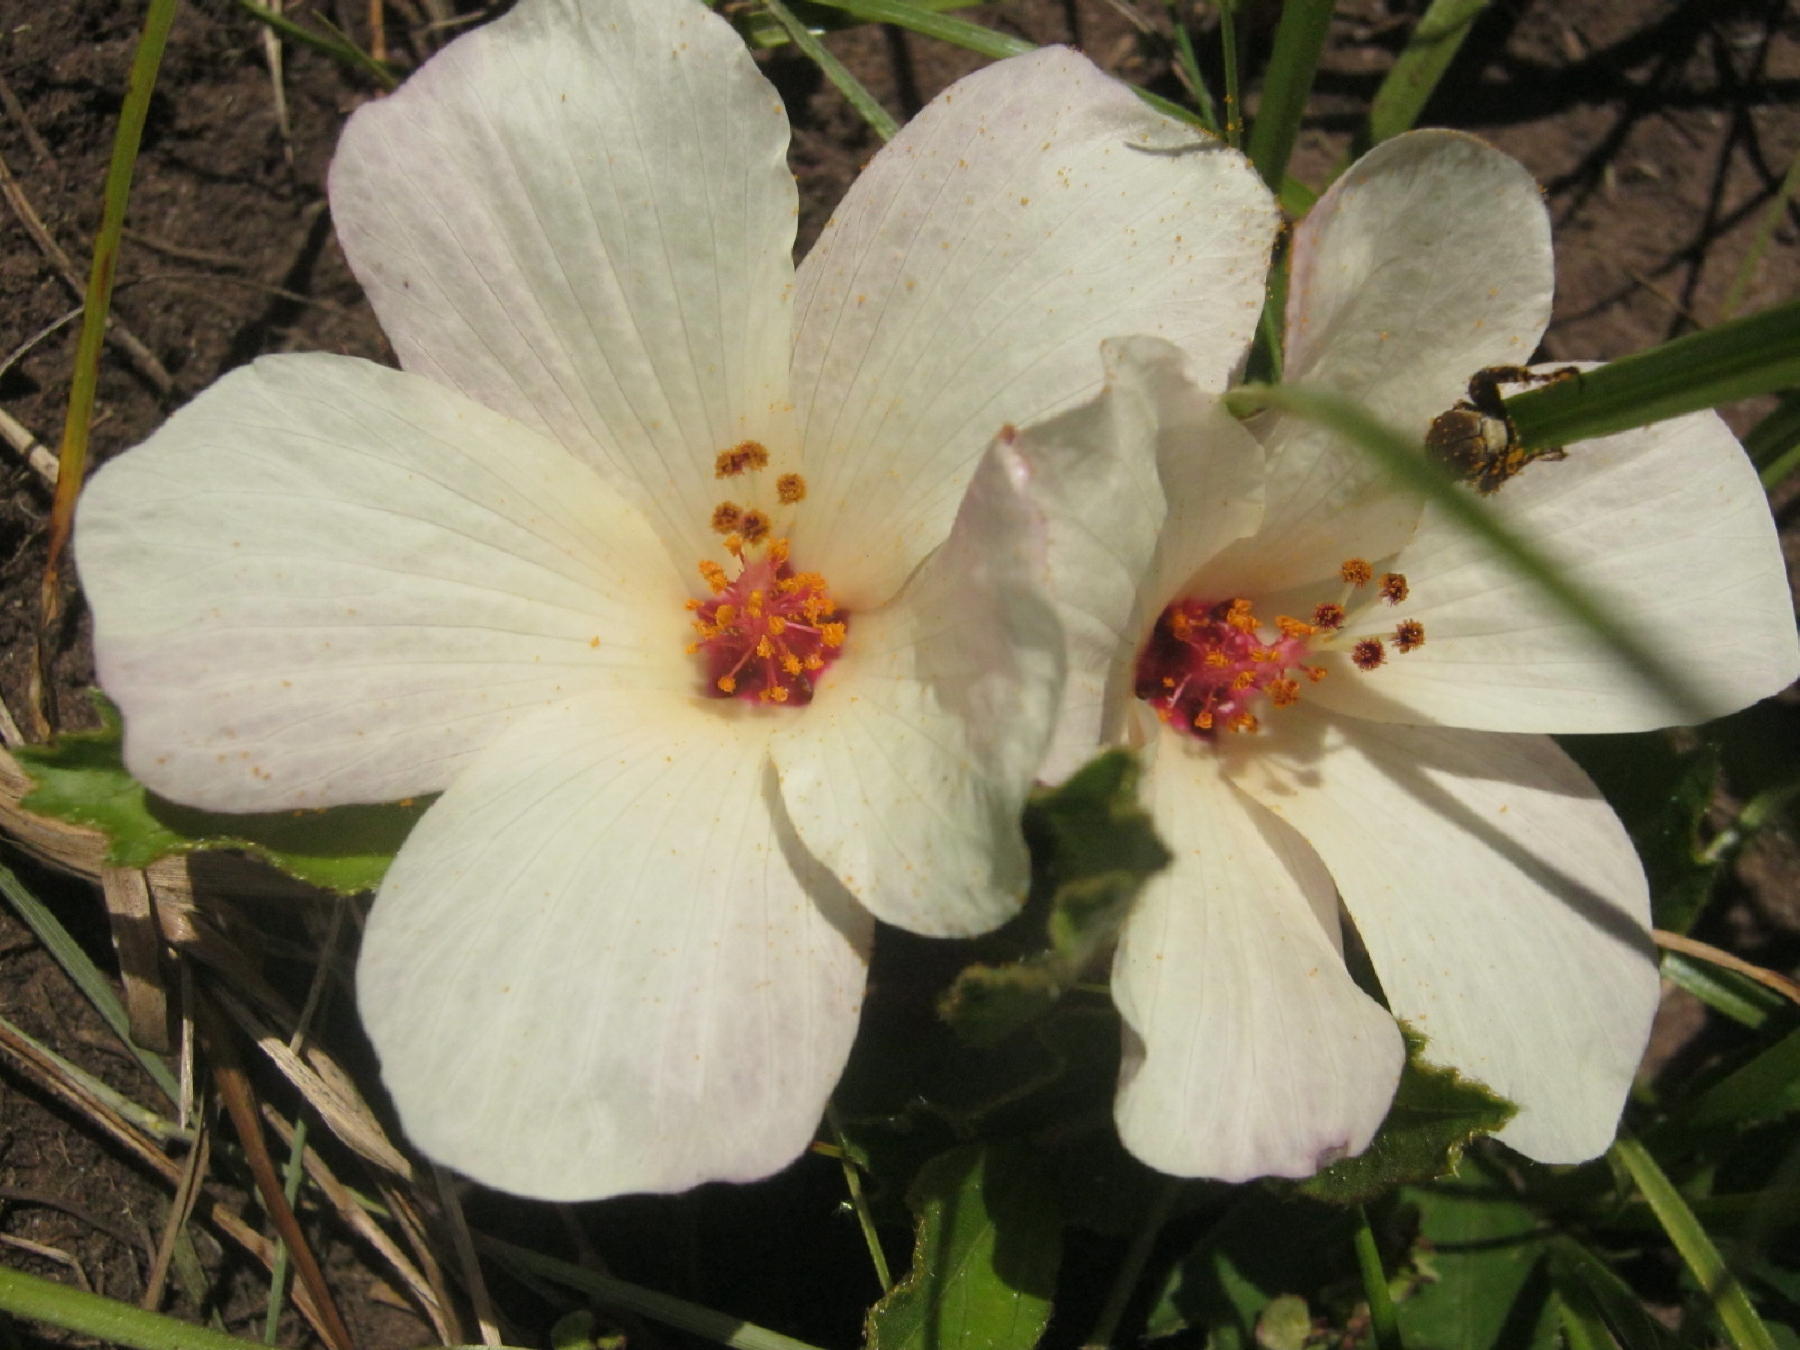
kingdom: Plantae
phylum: Tracheophyta
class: Magnoliopsida
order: Malvales
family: Malvaceae
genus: Hibiscus
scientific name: Hibiscus aethiopicus
